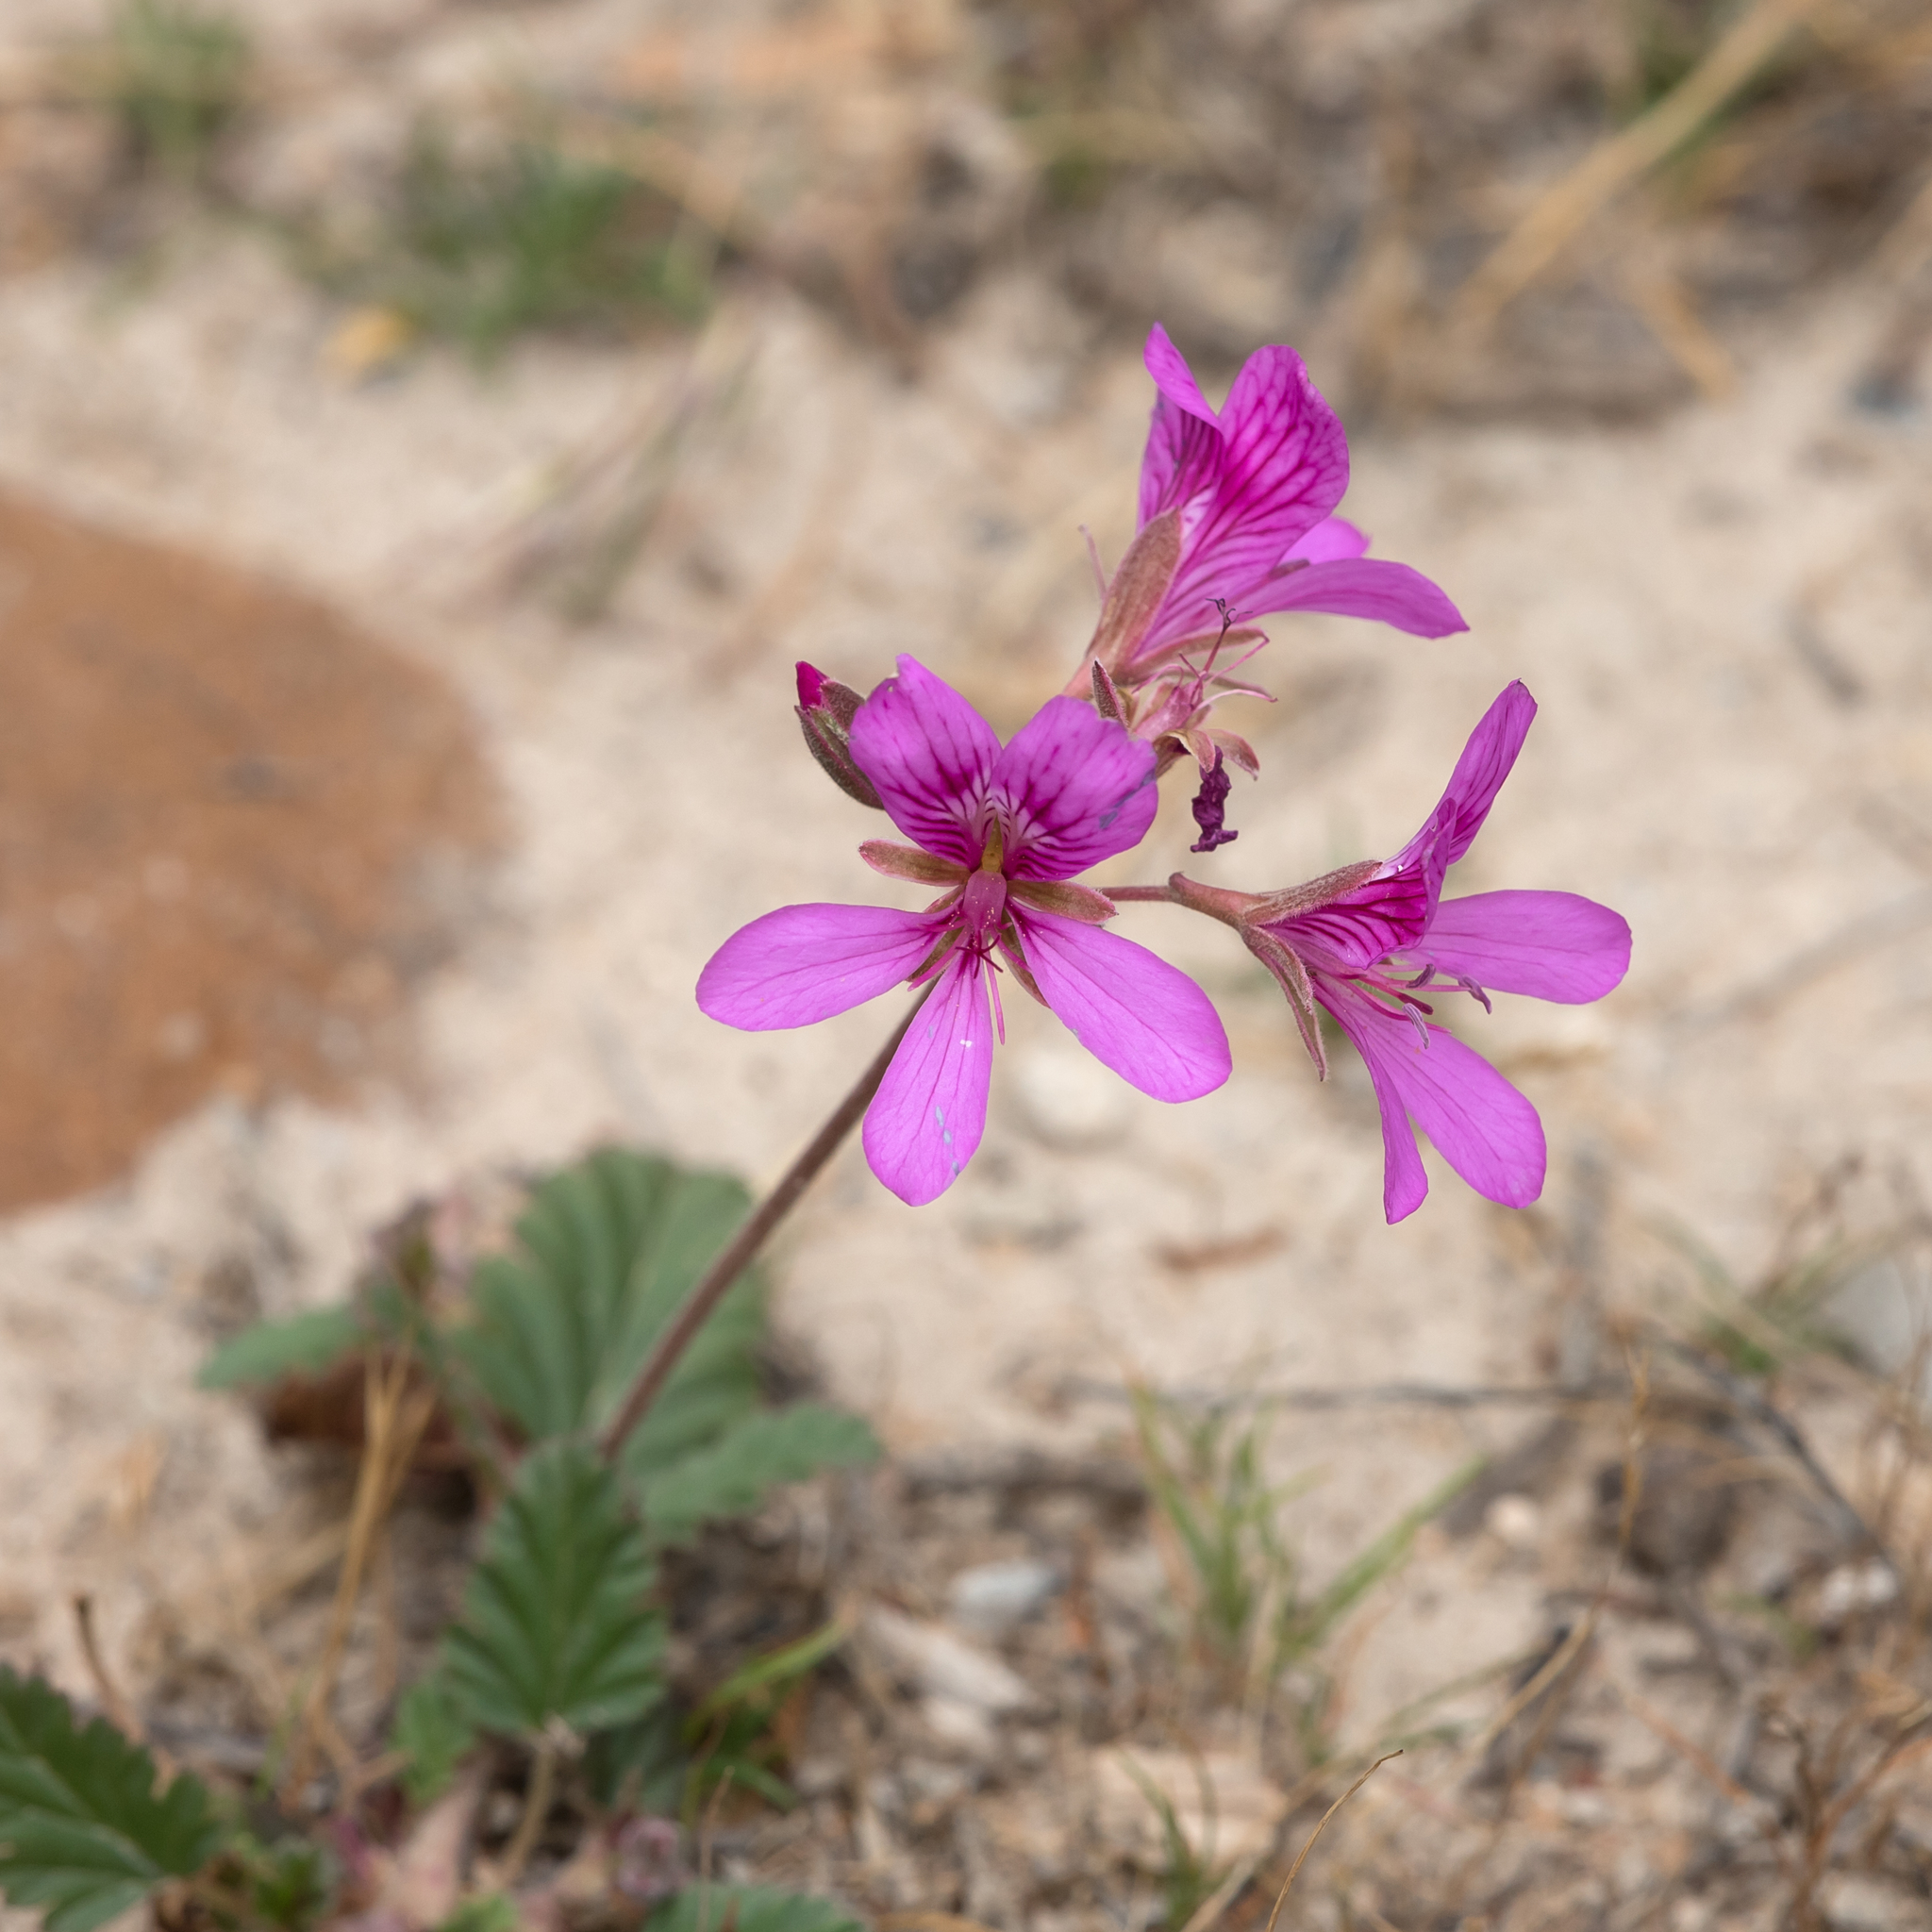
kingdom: Plantae
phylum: Tracheophyta
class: Magnoliopsida
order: Geraniales
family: Geraniaceae
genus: Pelargonium
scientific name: Pelargonium rodneyanum
